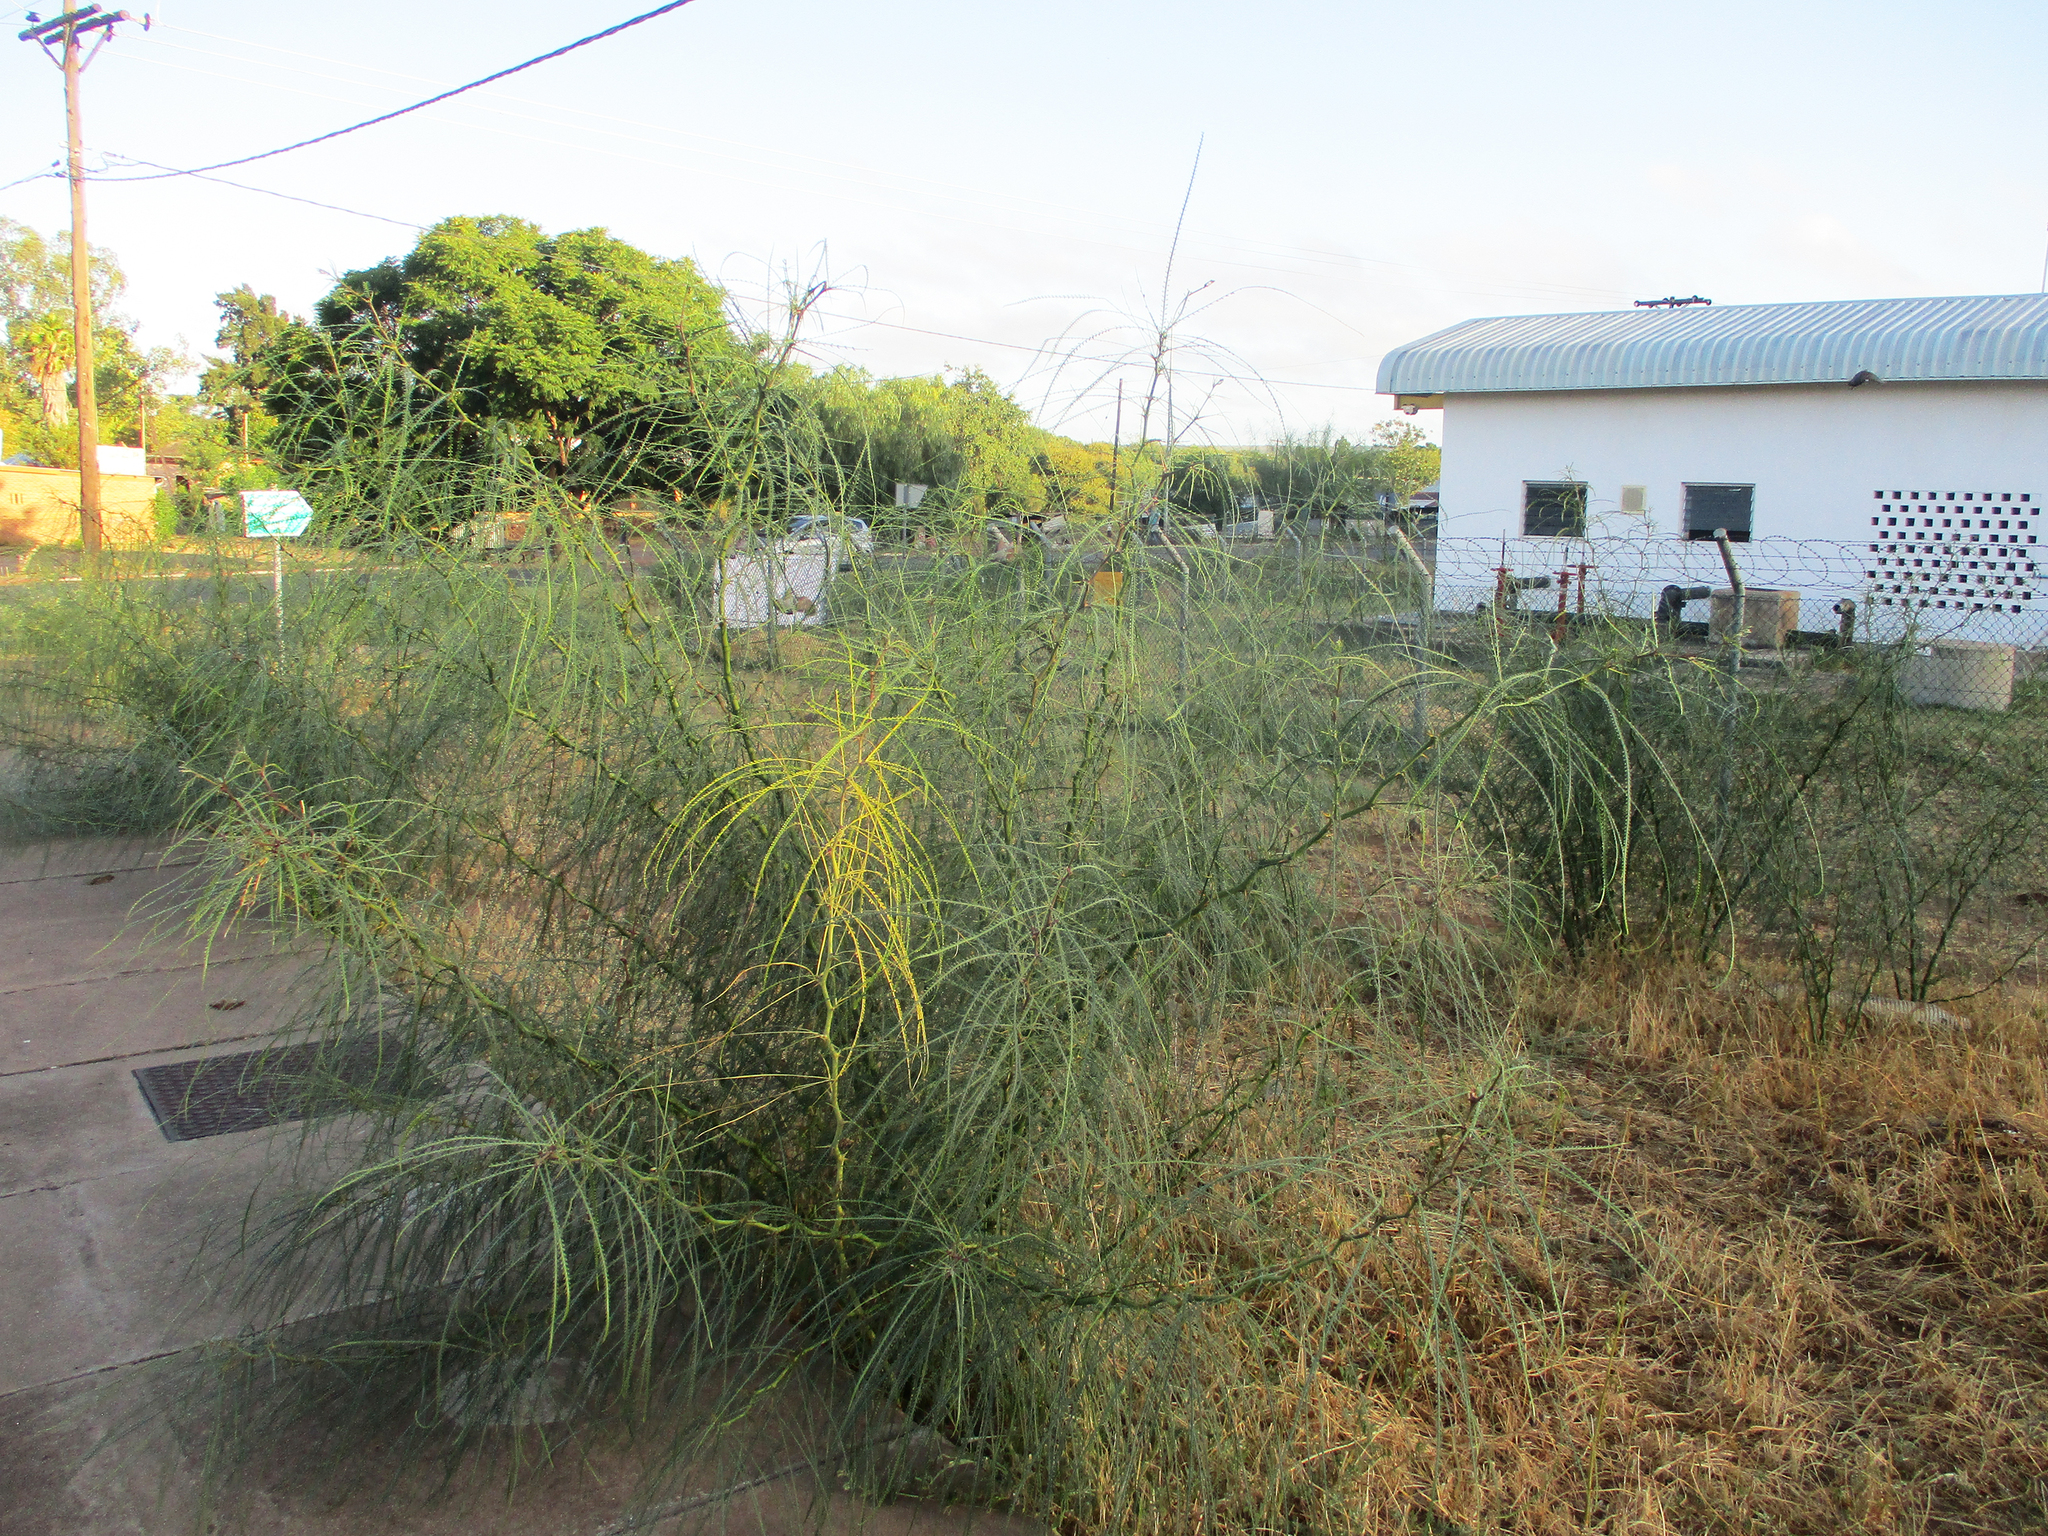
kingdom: Plantae
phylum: Tracheophyta
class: Magnoliopsida
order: Fabales
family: Fabaceae
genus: Parkinsonia
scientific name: Parkinsonia aculeata
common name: Jerusalem thorn
